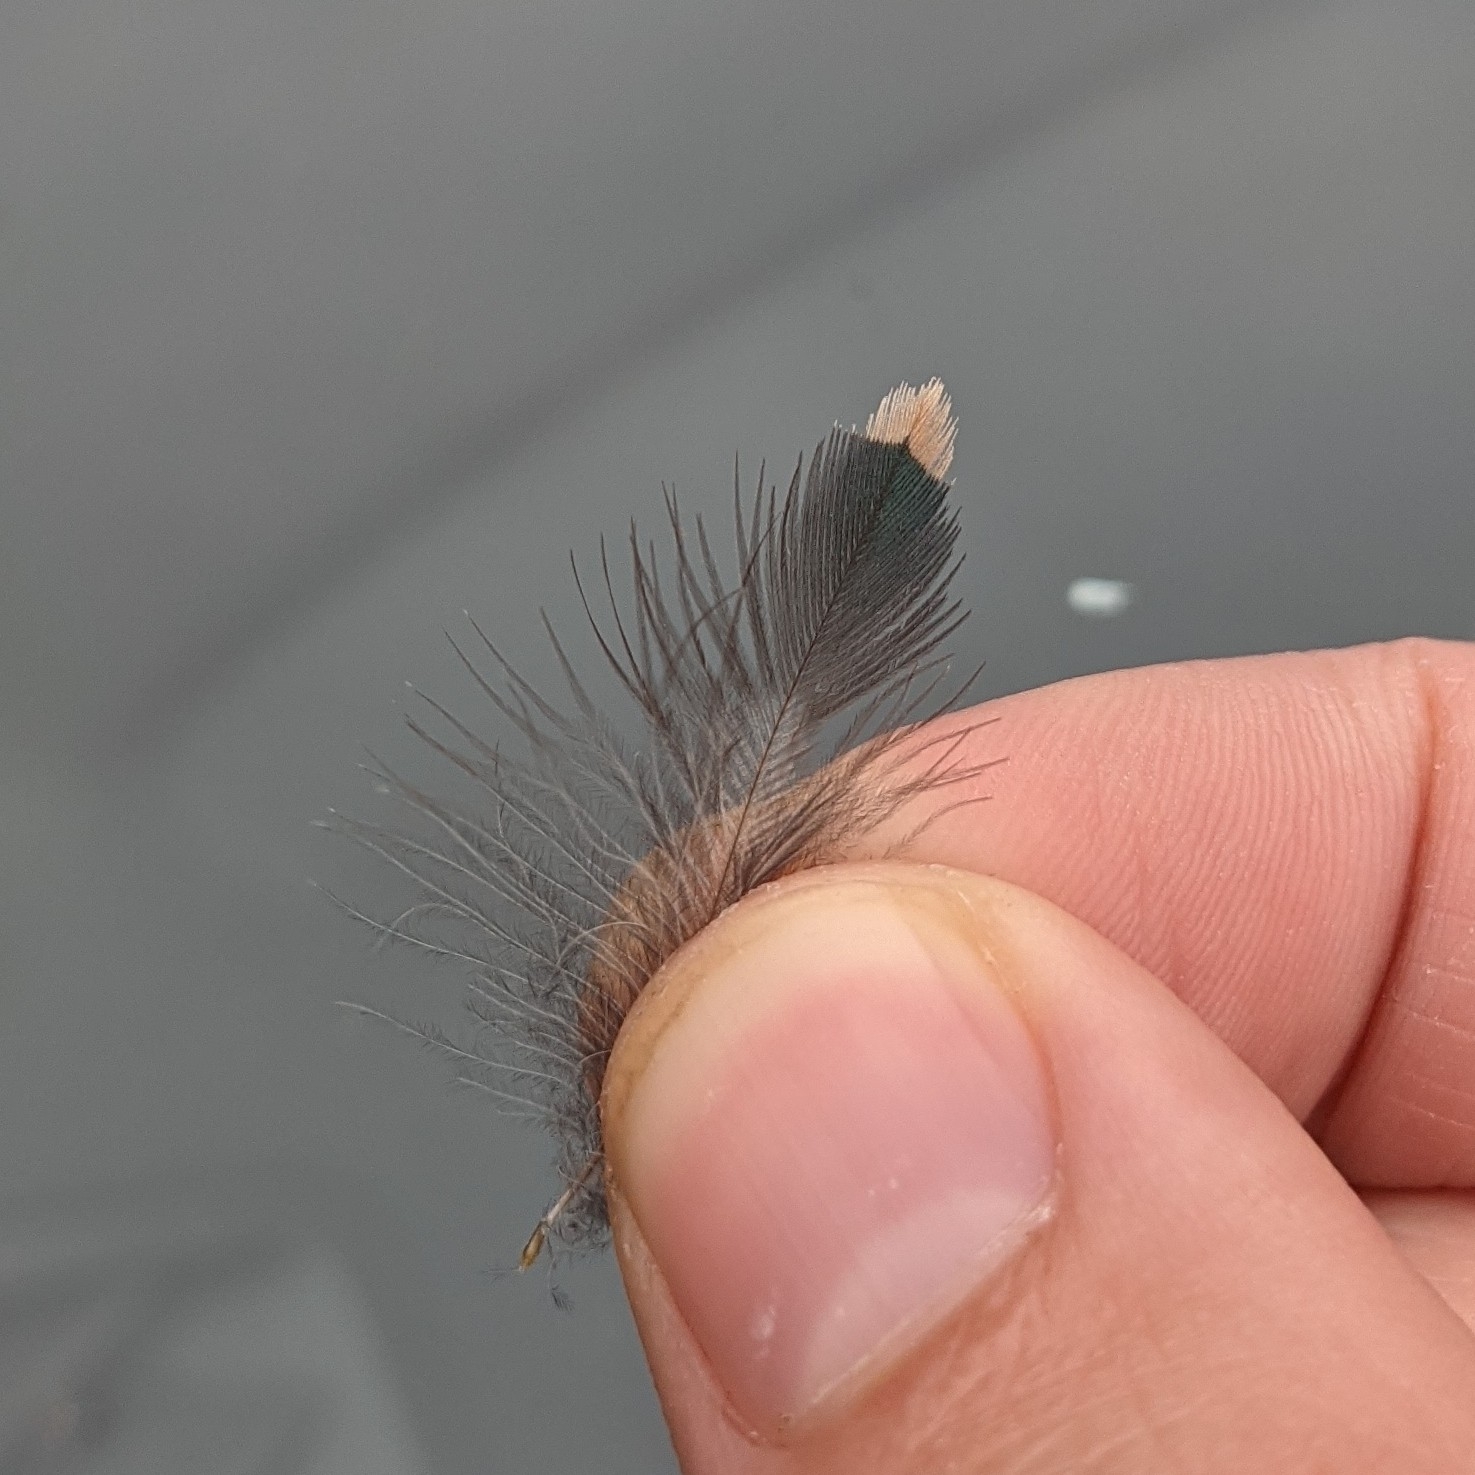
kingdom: Animalia
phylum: Chordata
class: Aves
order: Passeriformes
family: Sturnidae
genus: Sturnus
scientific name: Sturnus vulgaris
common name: Common starling
